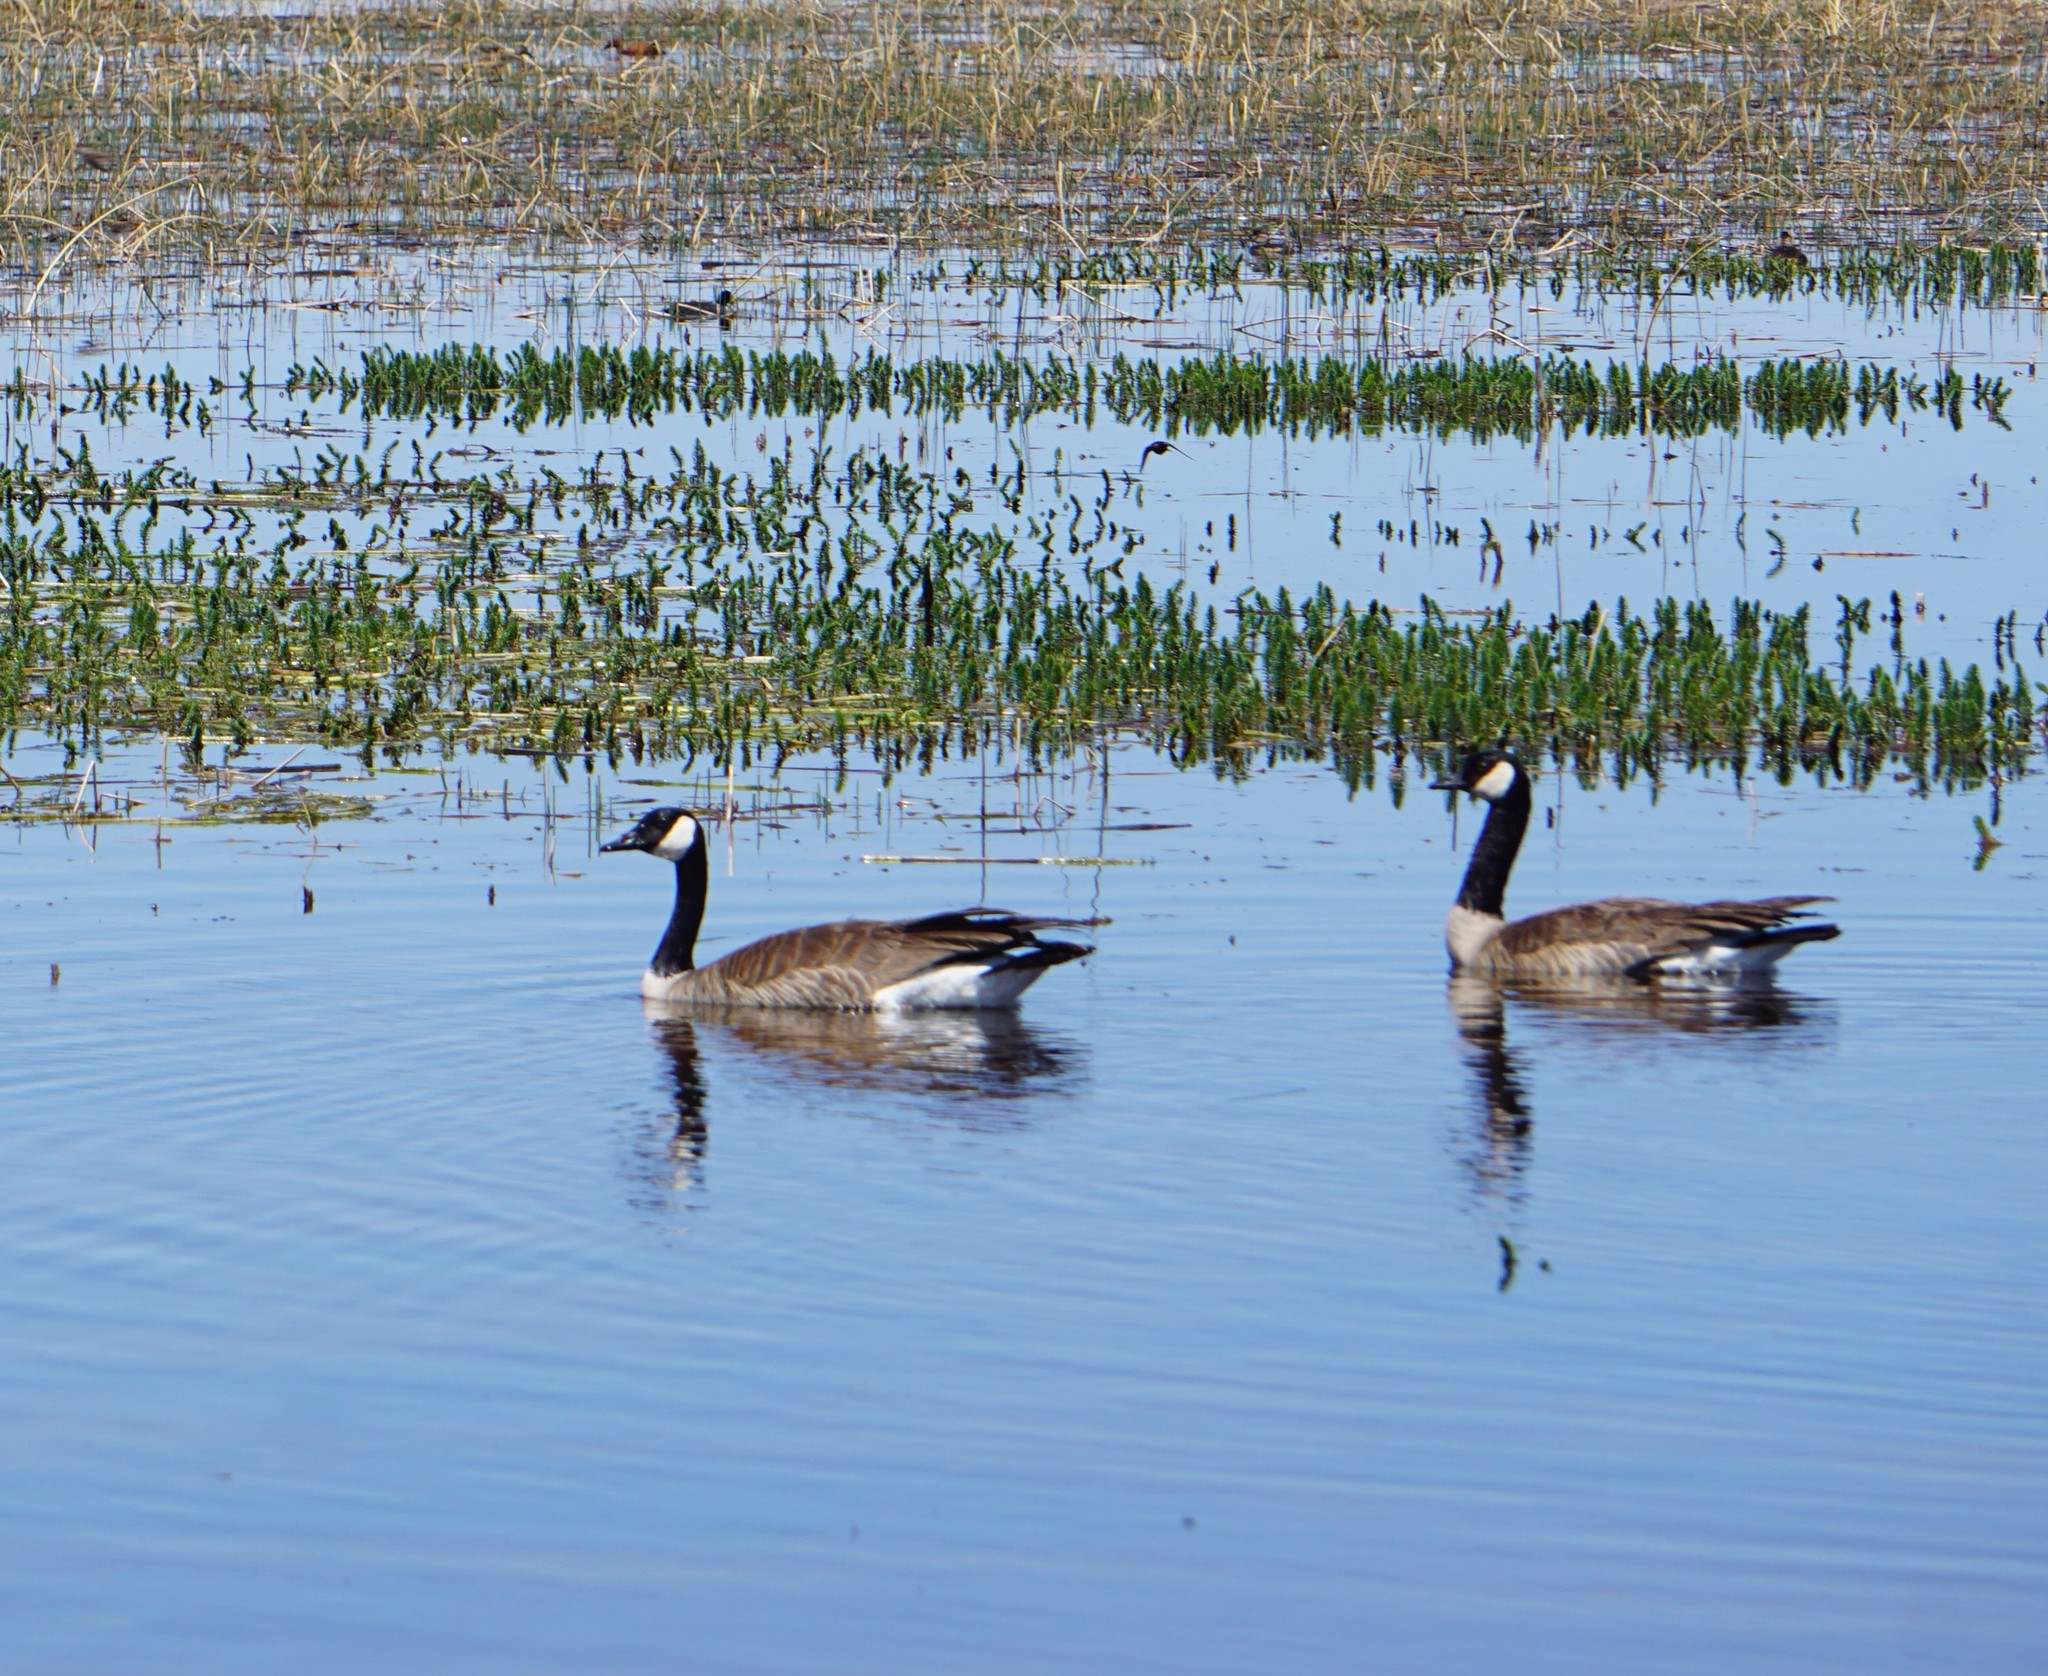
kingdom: Animalia
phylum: Chordata
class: Aves
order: Anseriformes
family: Anatidae
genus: Branta
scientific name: Branta canadensis
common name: Canada goose
